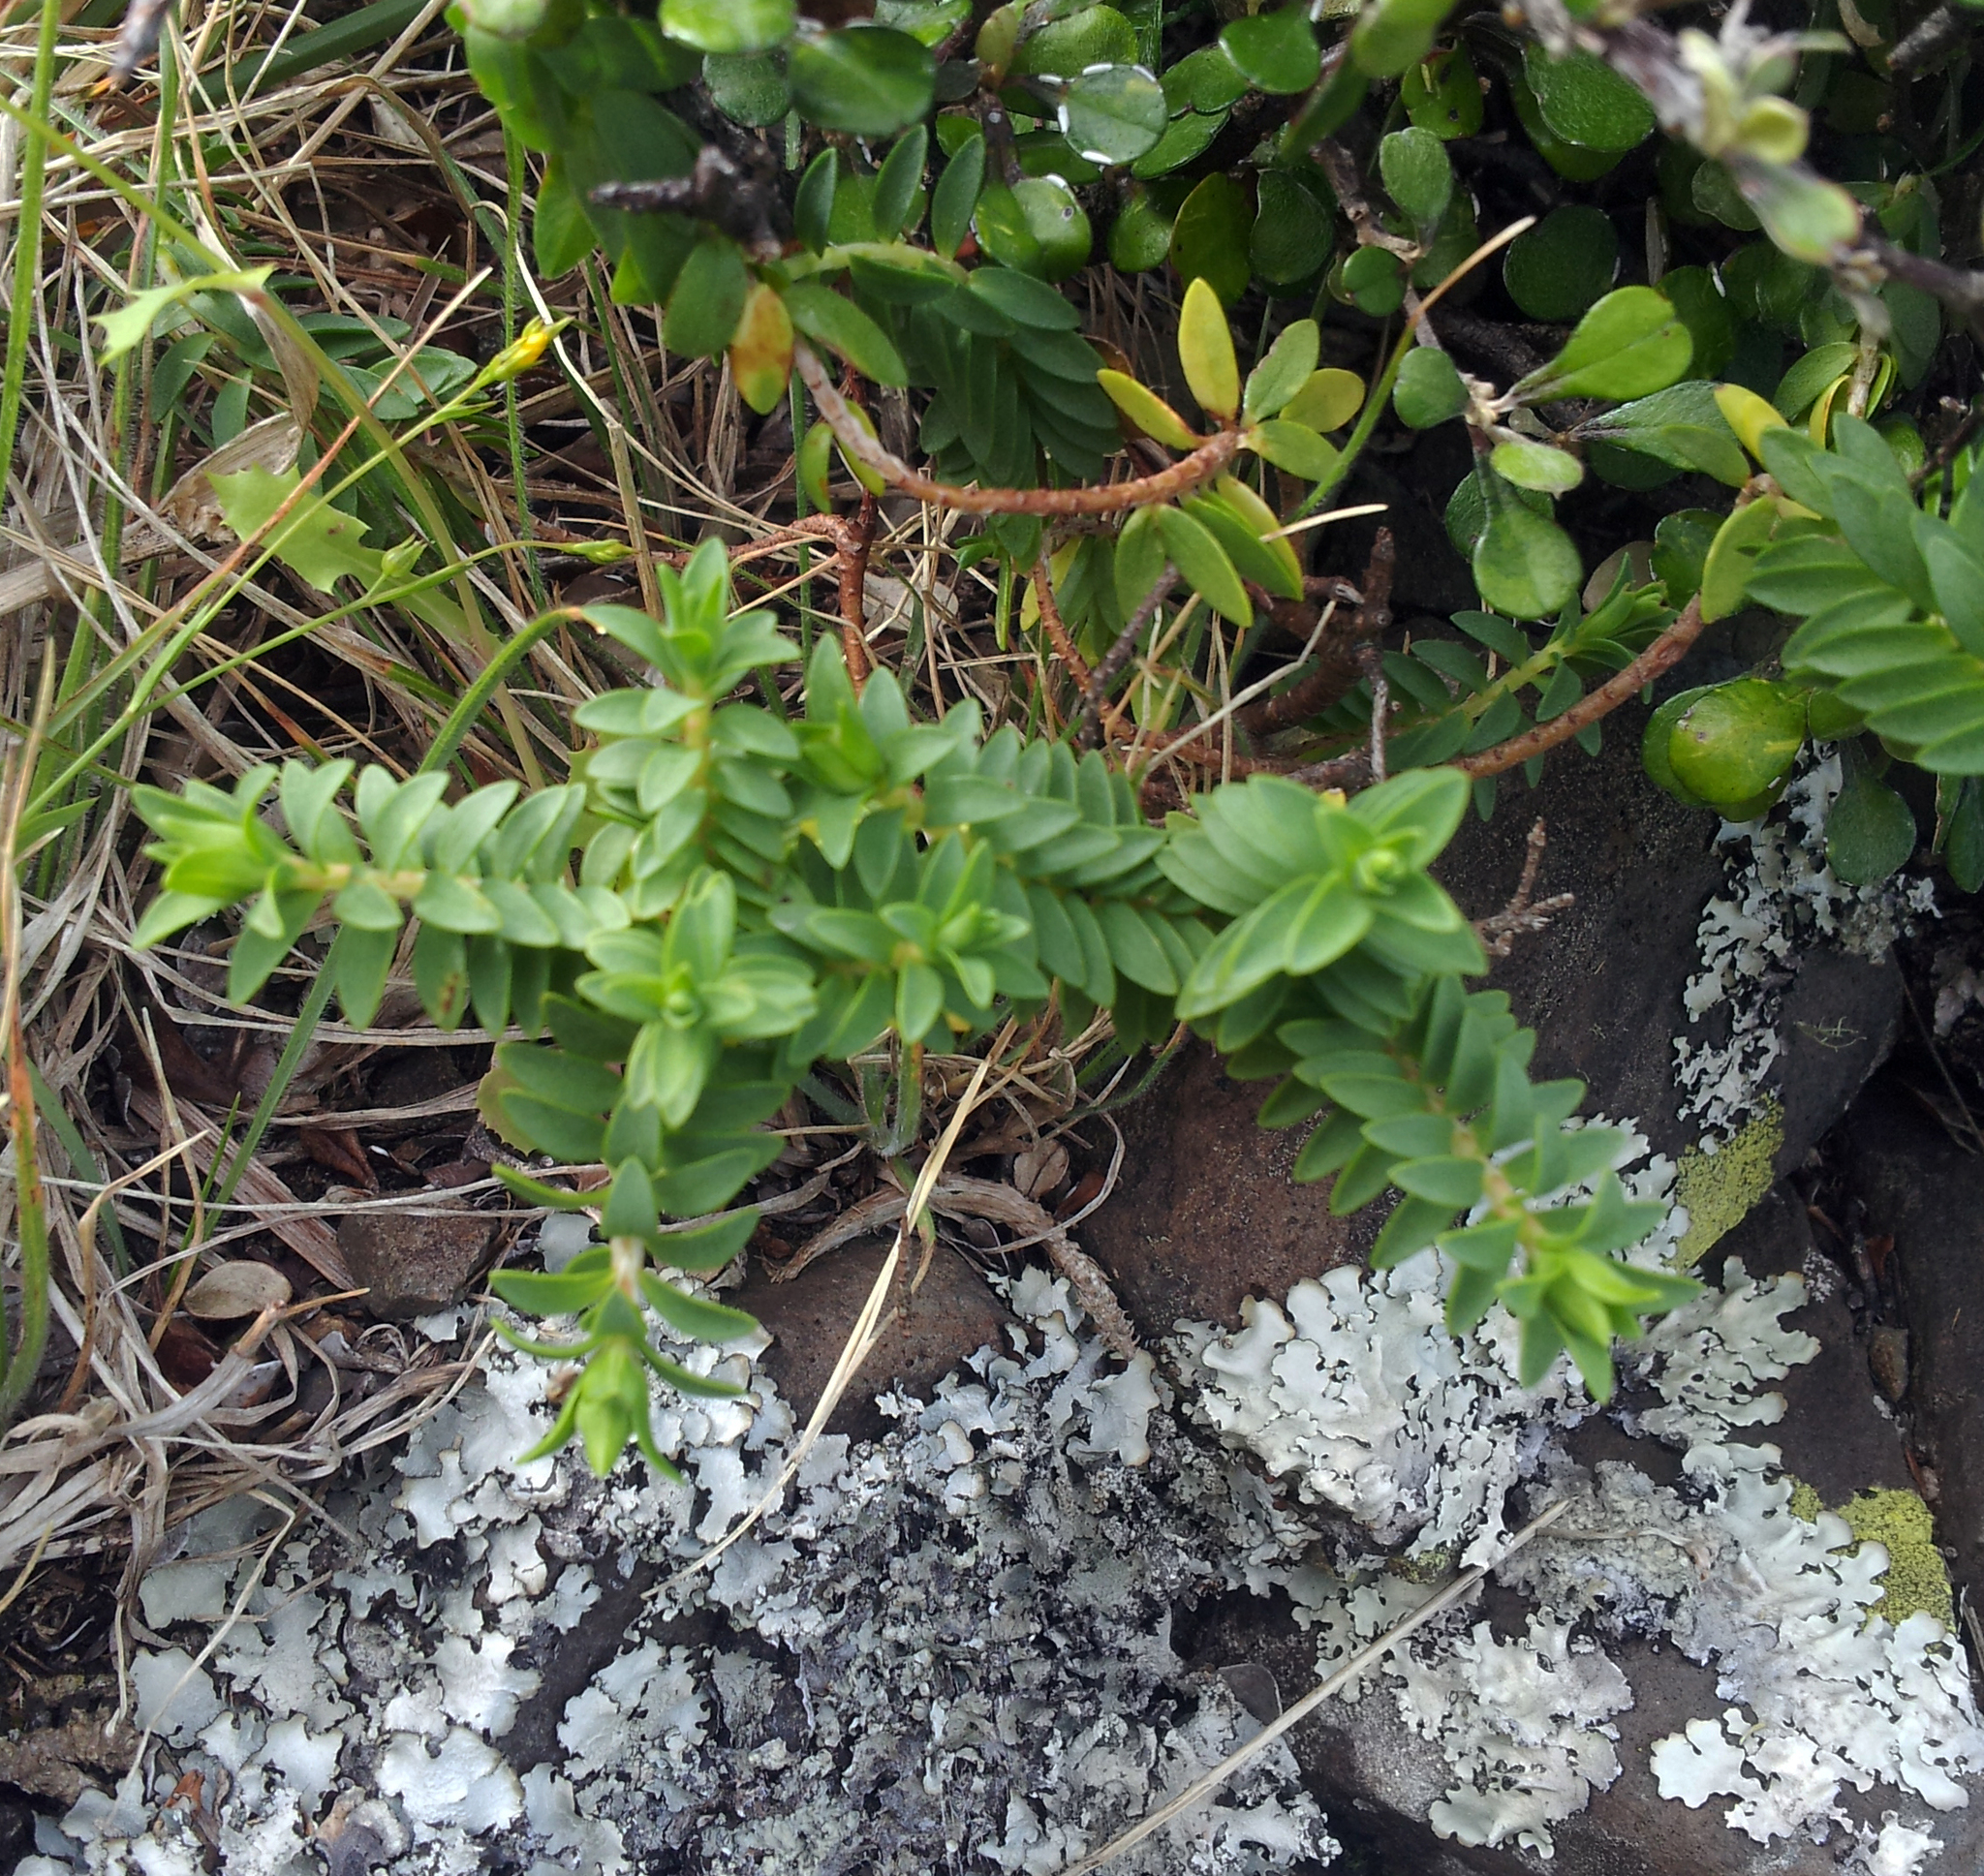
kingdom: Plantae
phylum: Tracheophyta
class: Magnoliopsida
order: Malvales
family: Thymelaeaceae
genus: Pimelea
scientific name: Pimelea eremitica
